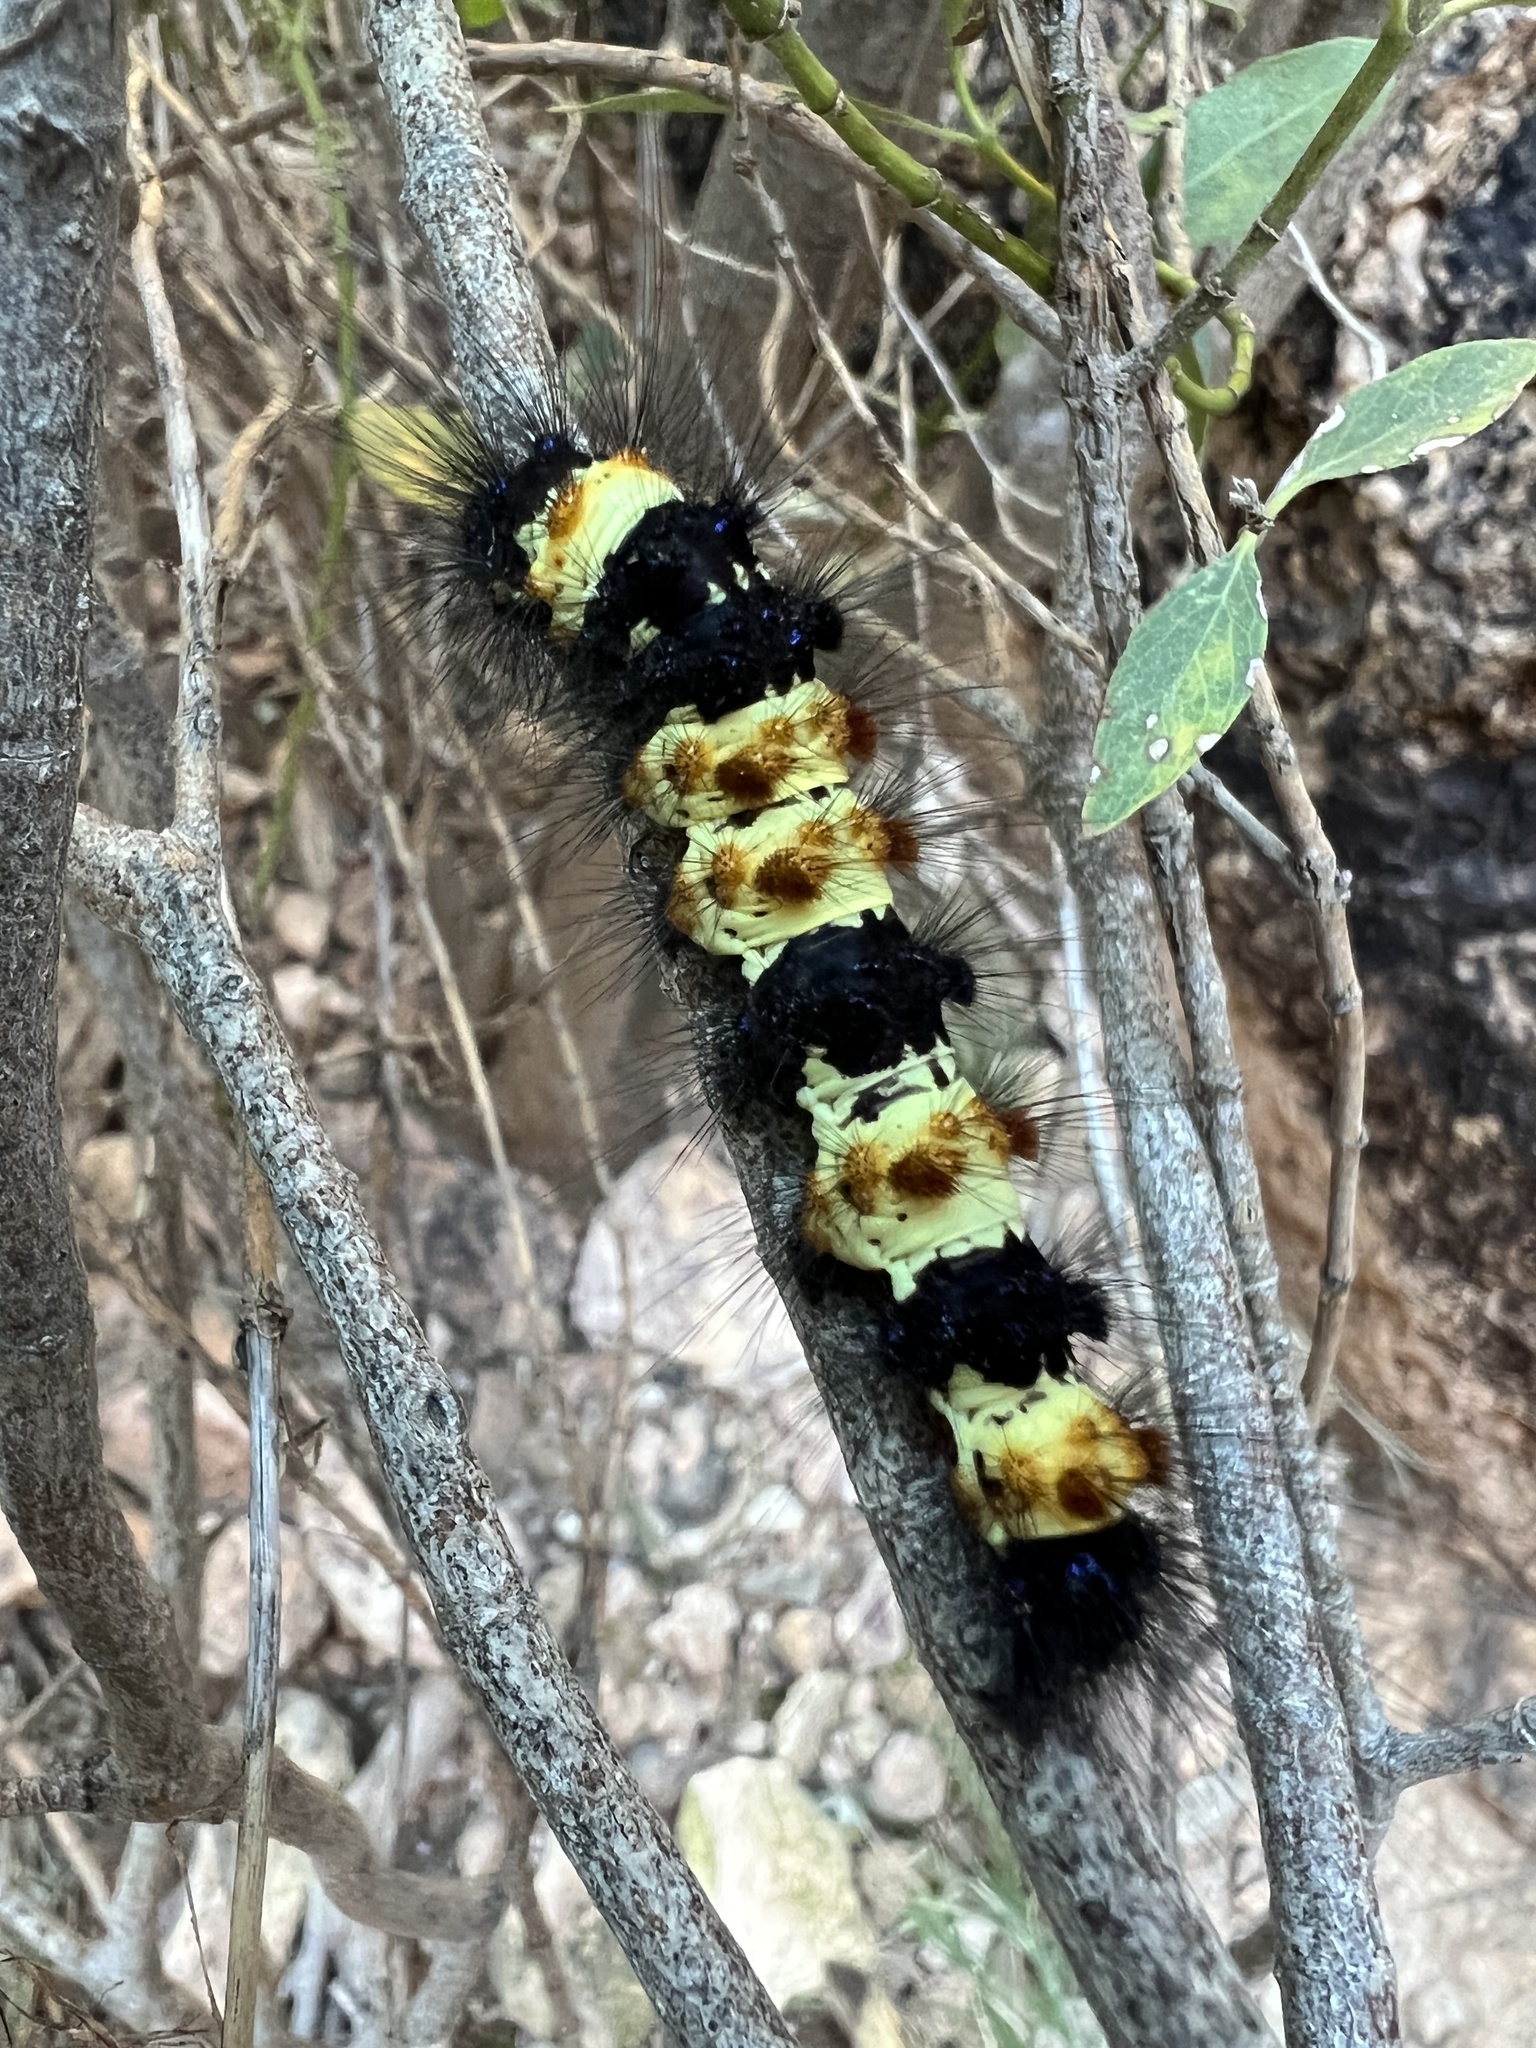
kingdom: Animalia
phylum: Arthropoda
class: Insecta
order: Lepidoptera
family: Erebidae
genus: Dysschema
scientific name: Dysschema howardi
